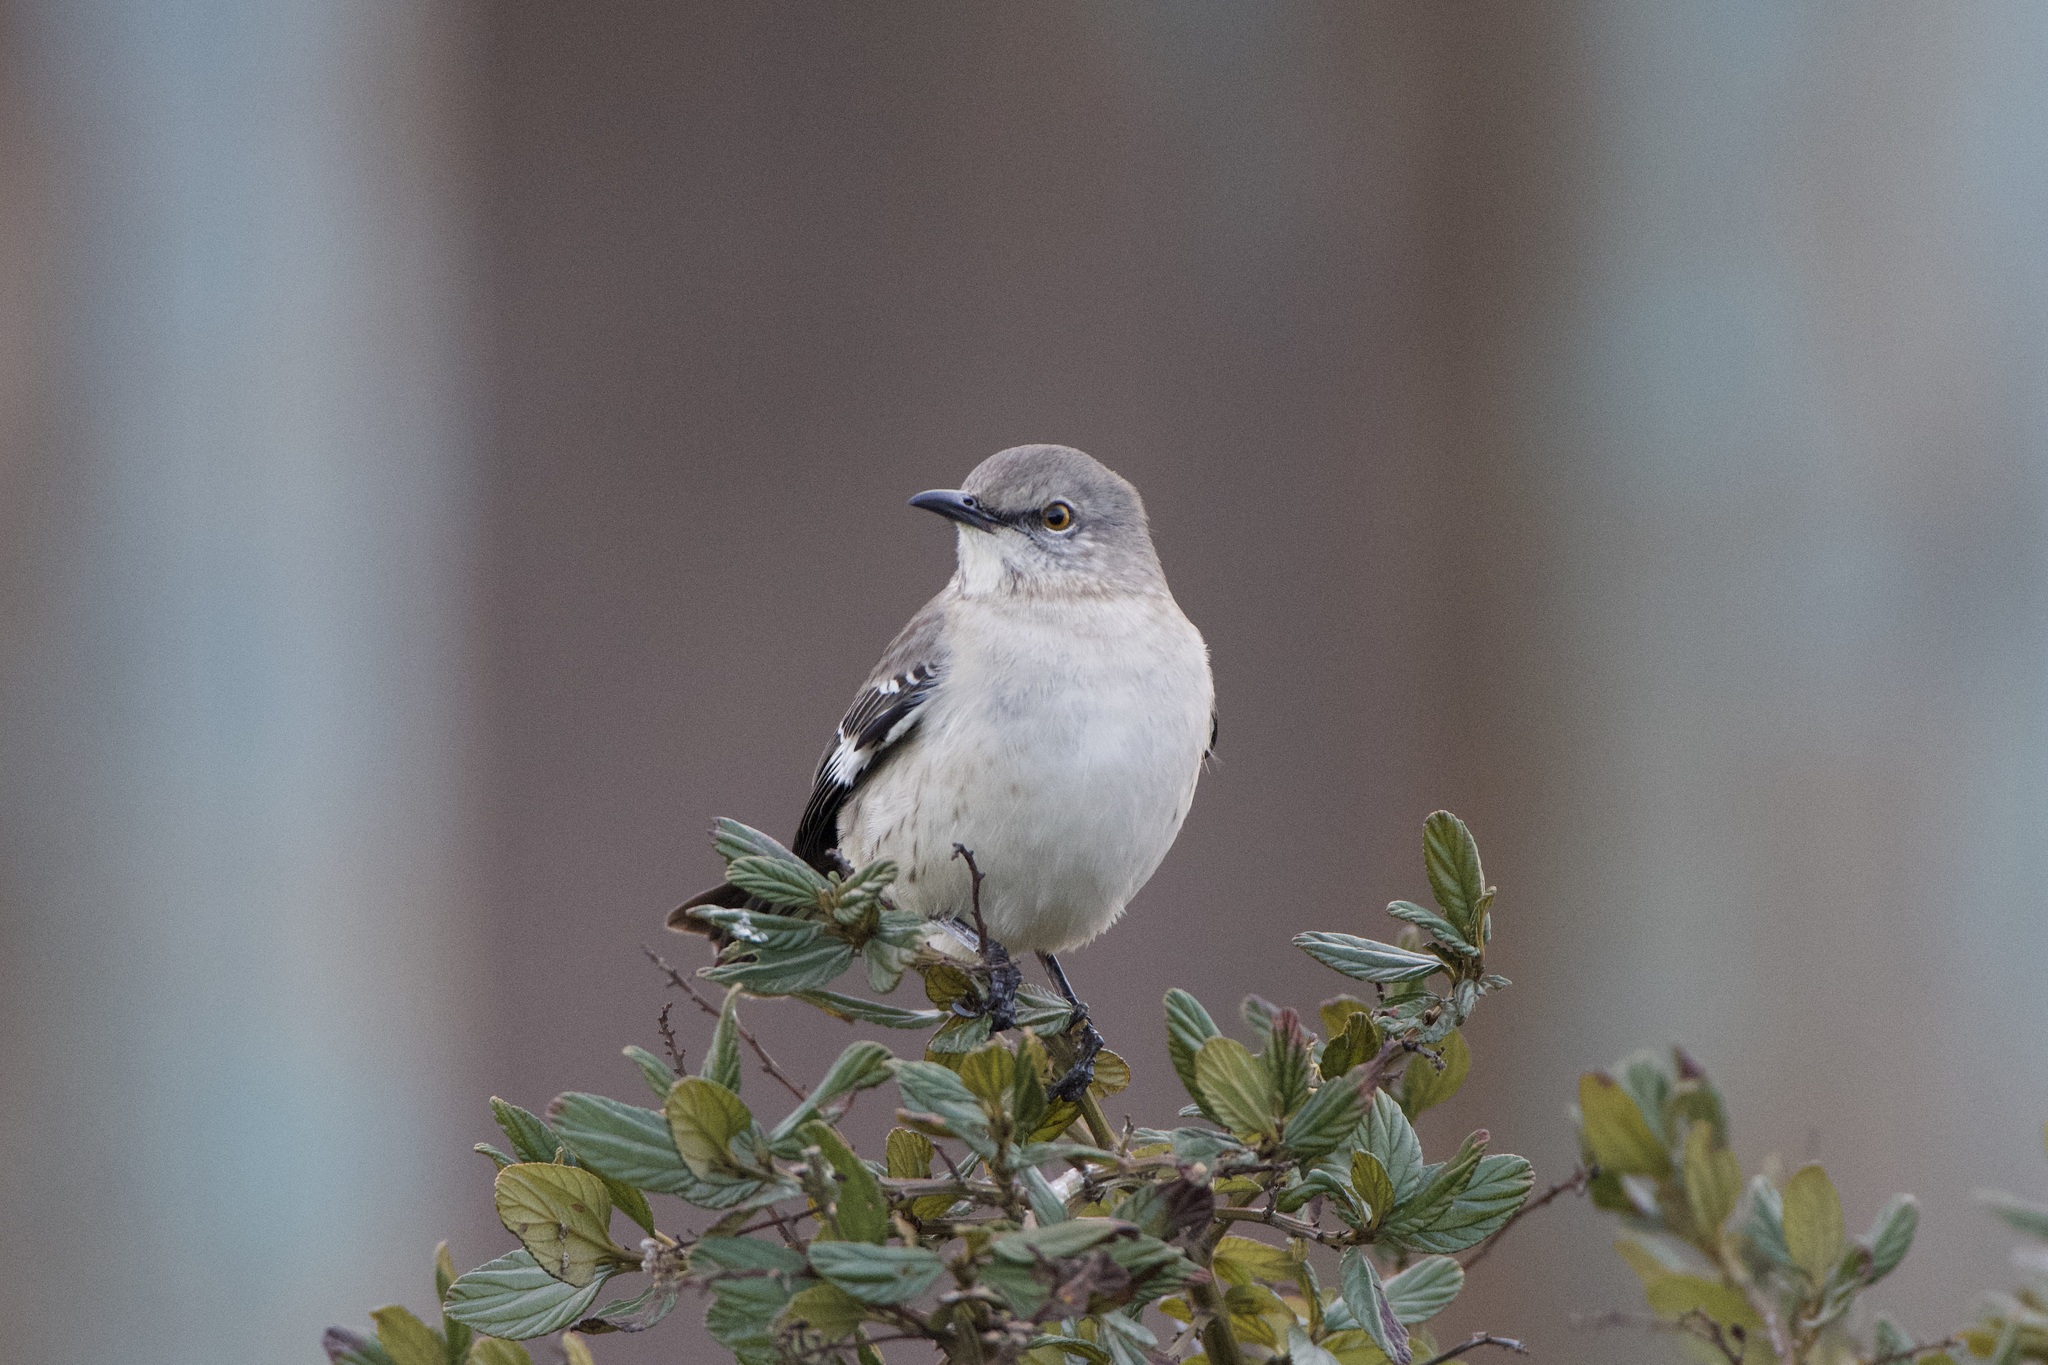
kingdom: Animalia
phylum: Chordata
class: Aves
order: Passeriformes
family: Mimidae
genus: Mimus
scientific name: Mimus polyglottos
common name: Northern mockingbird
